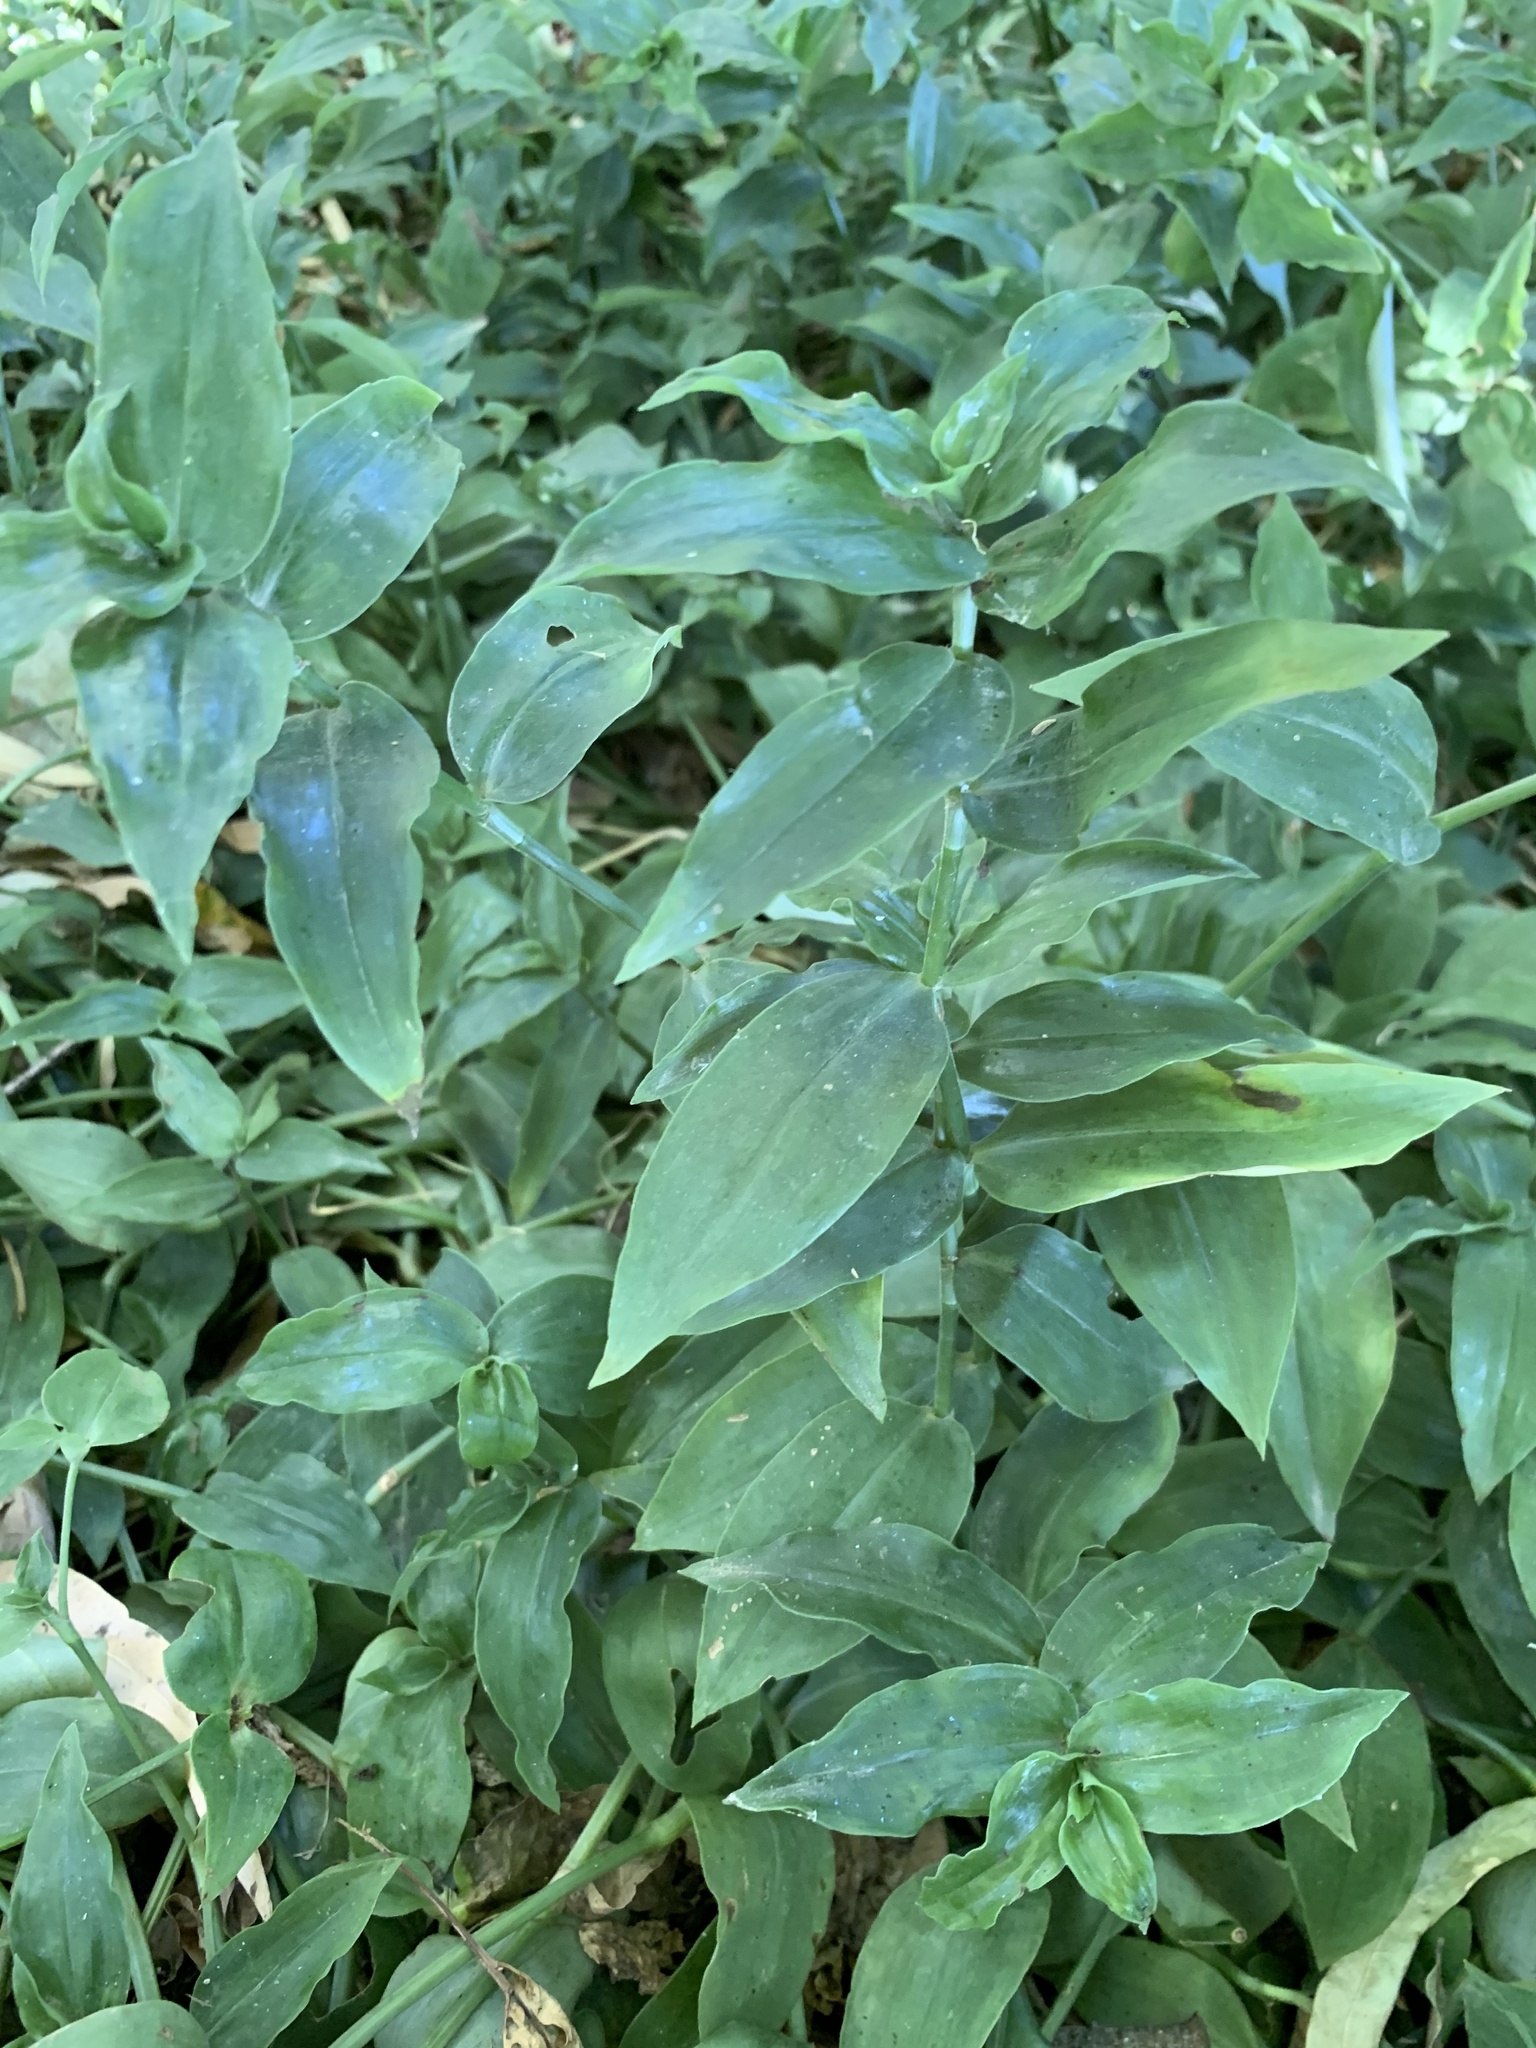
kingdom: Plantae
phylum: Tracheophyta
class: Liliopsida
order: Commelinales
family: Commelinaceae
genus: Tradescantia
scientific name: Tradescantia fluminensis
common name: Wandering-jew
